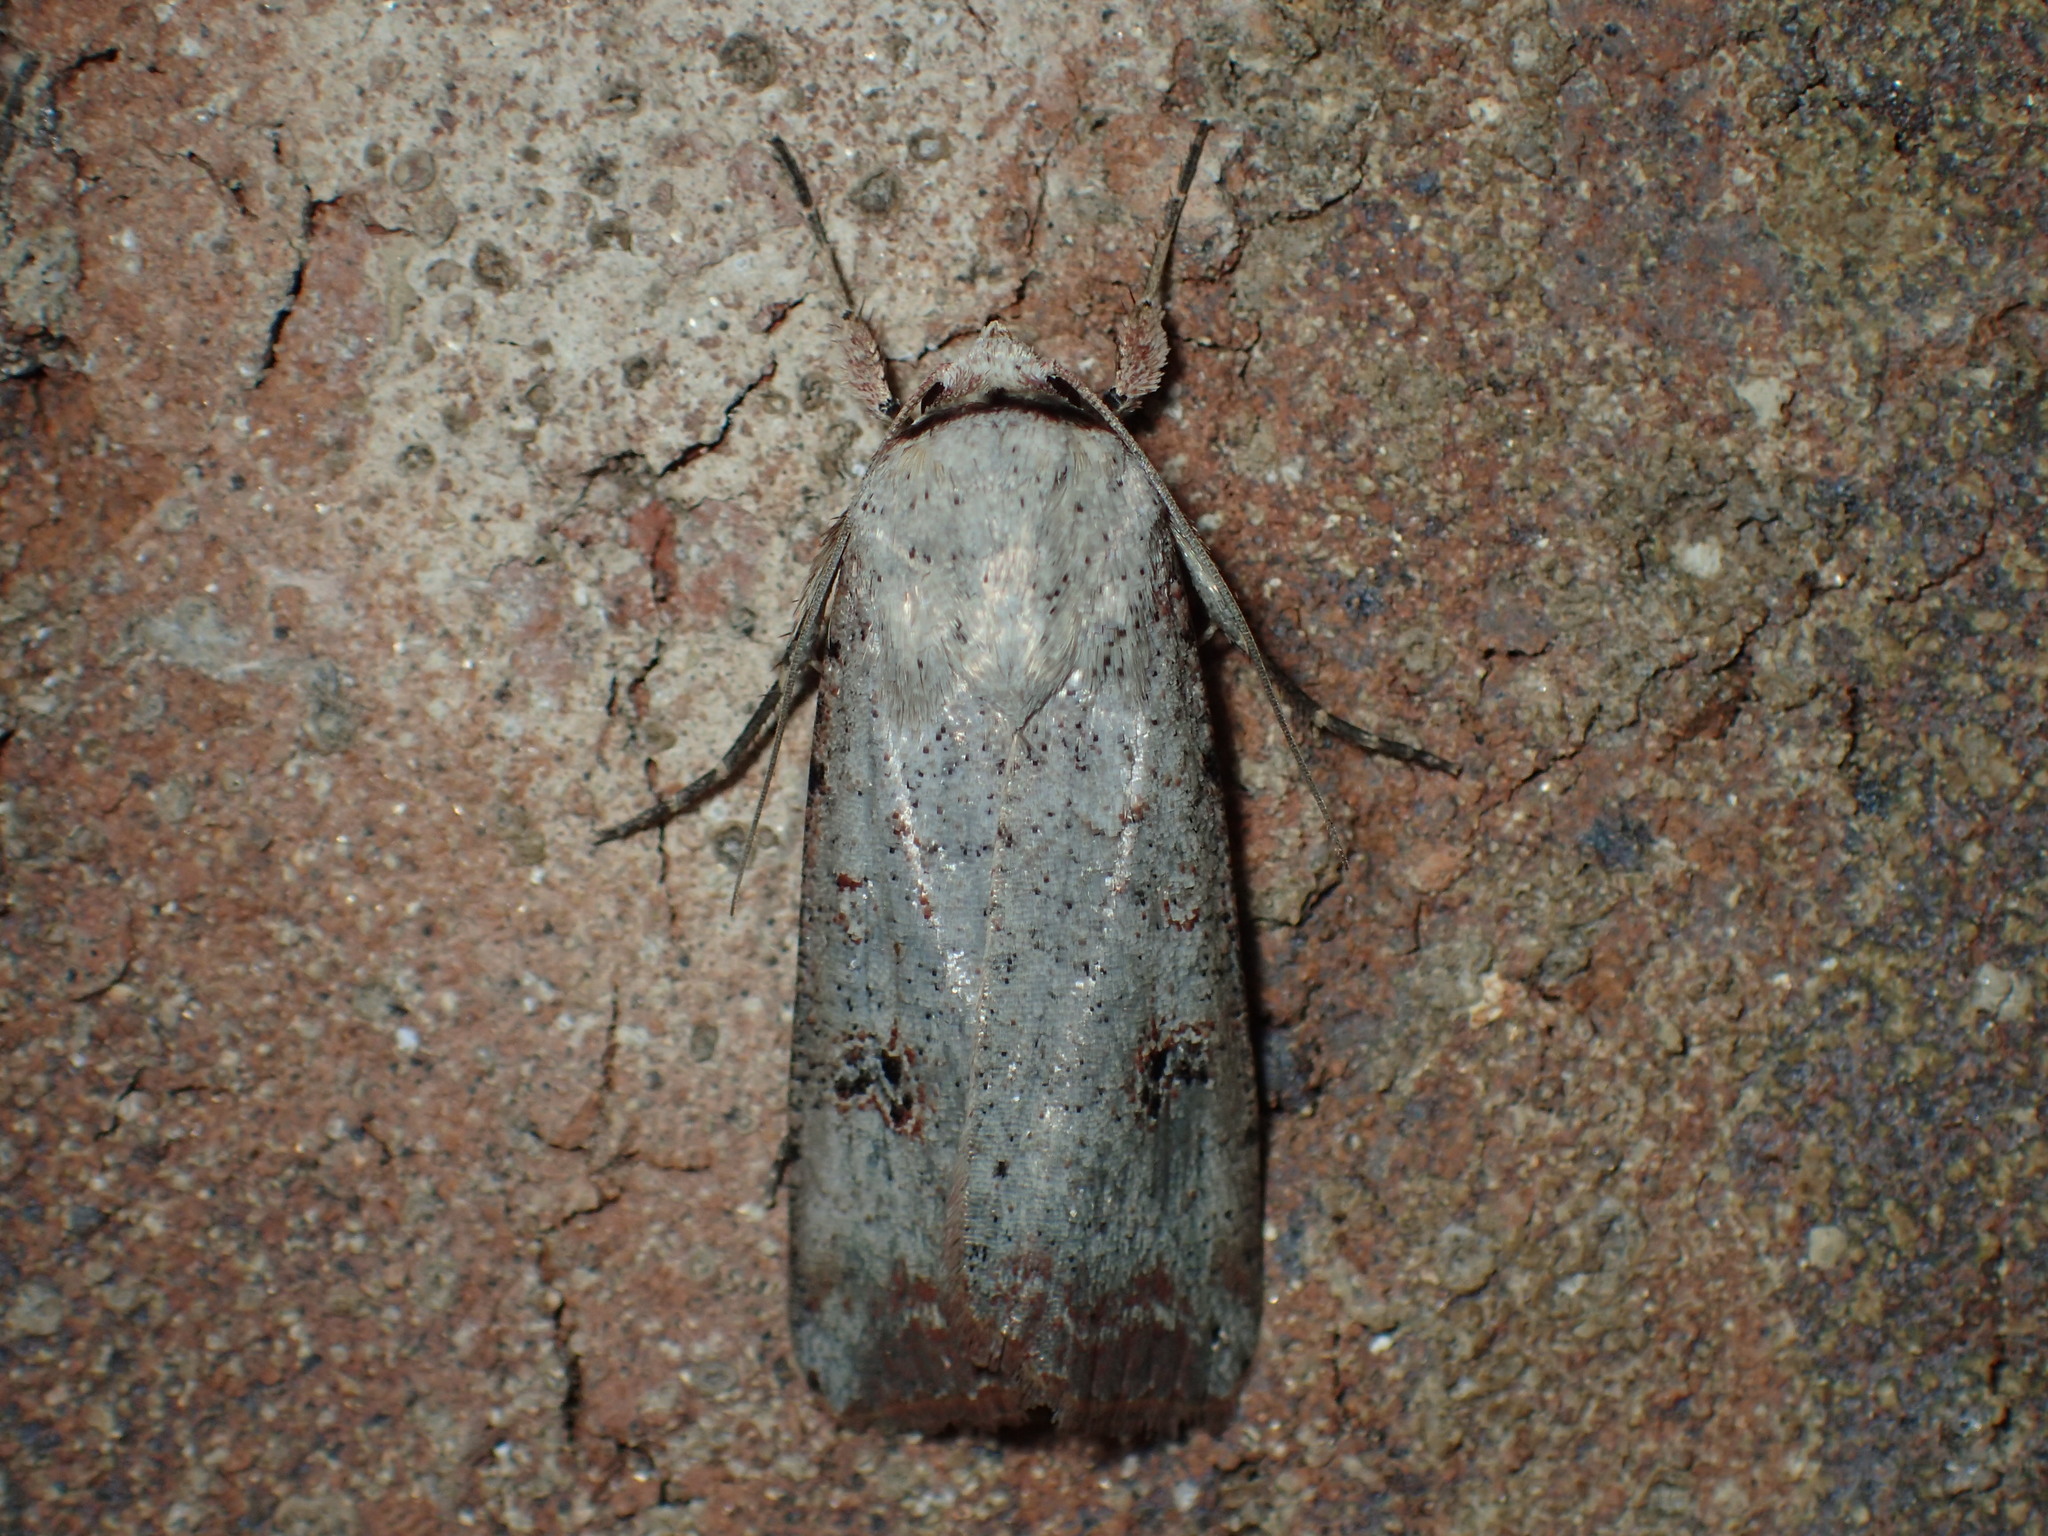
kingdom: Animalia
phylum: Arthropoda
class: Insecta
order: Lepidoptera
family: Noctuidae
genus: Anicla
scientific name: Anicla infecta
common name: Green cutworm
